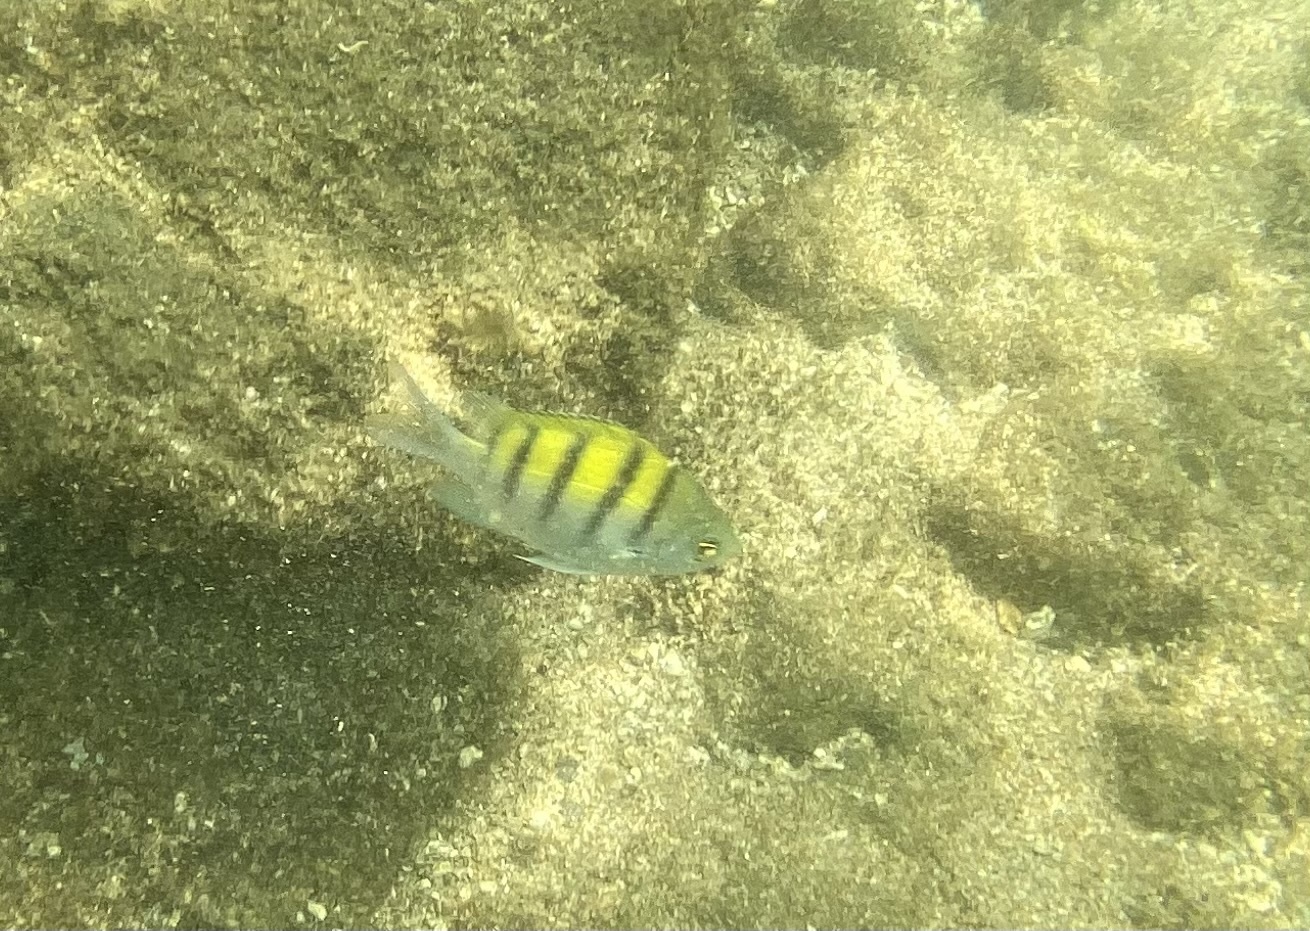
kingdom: Animalia
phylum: Chordata
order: Perciformes
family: Pomacentridae
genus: Abudefduf
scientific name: Abudefduf troschelii
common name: Panamic sergeant major
